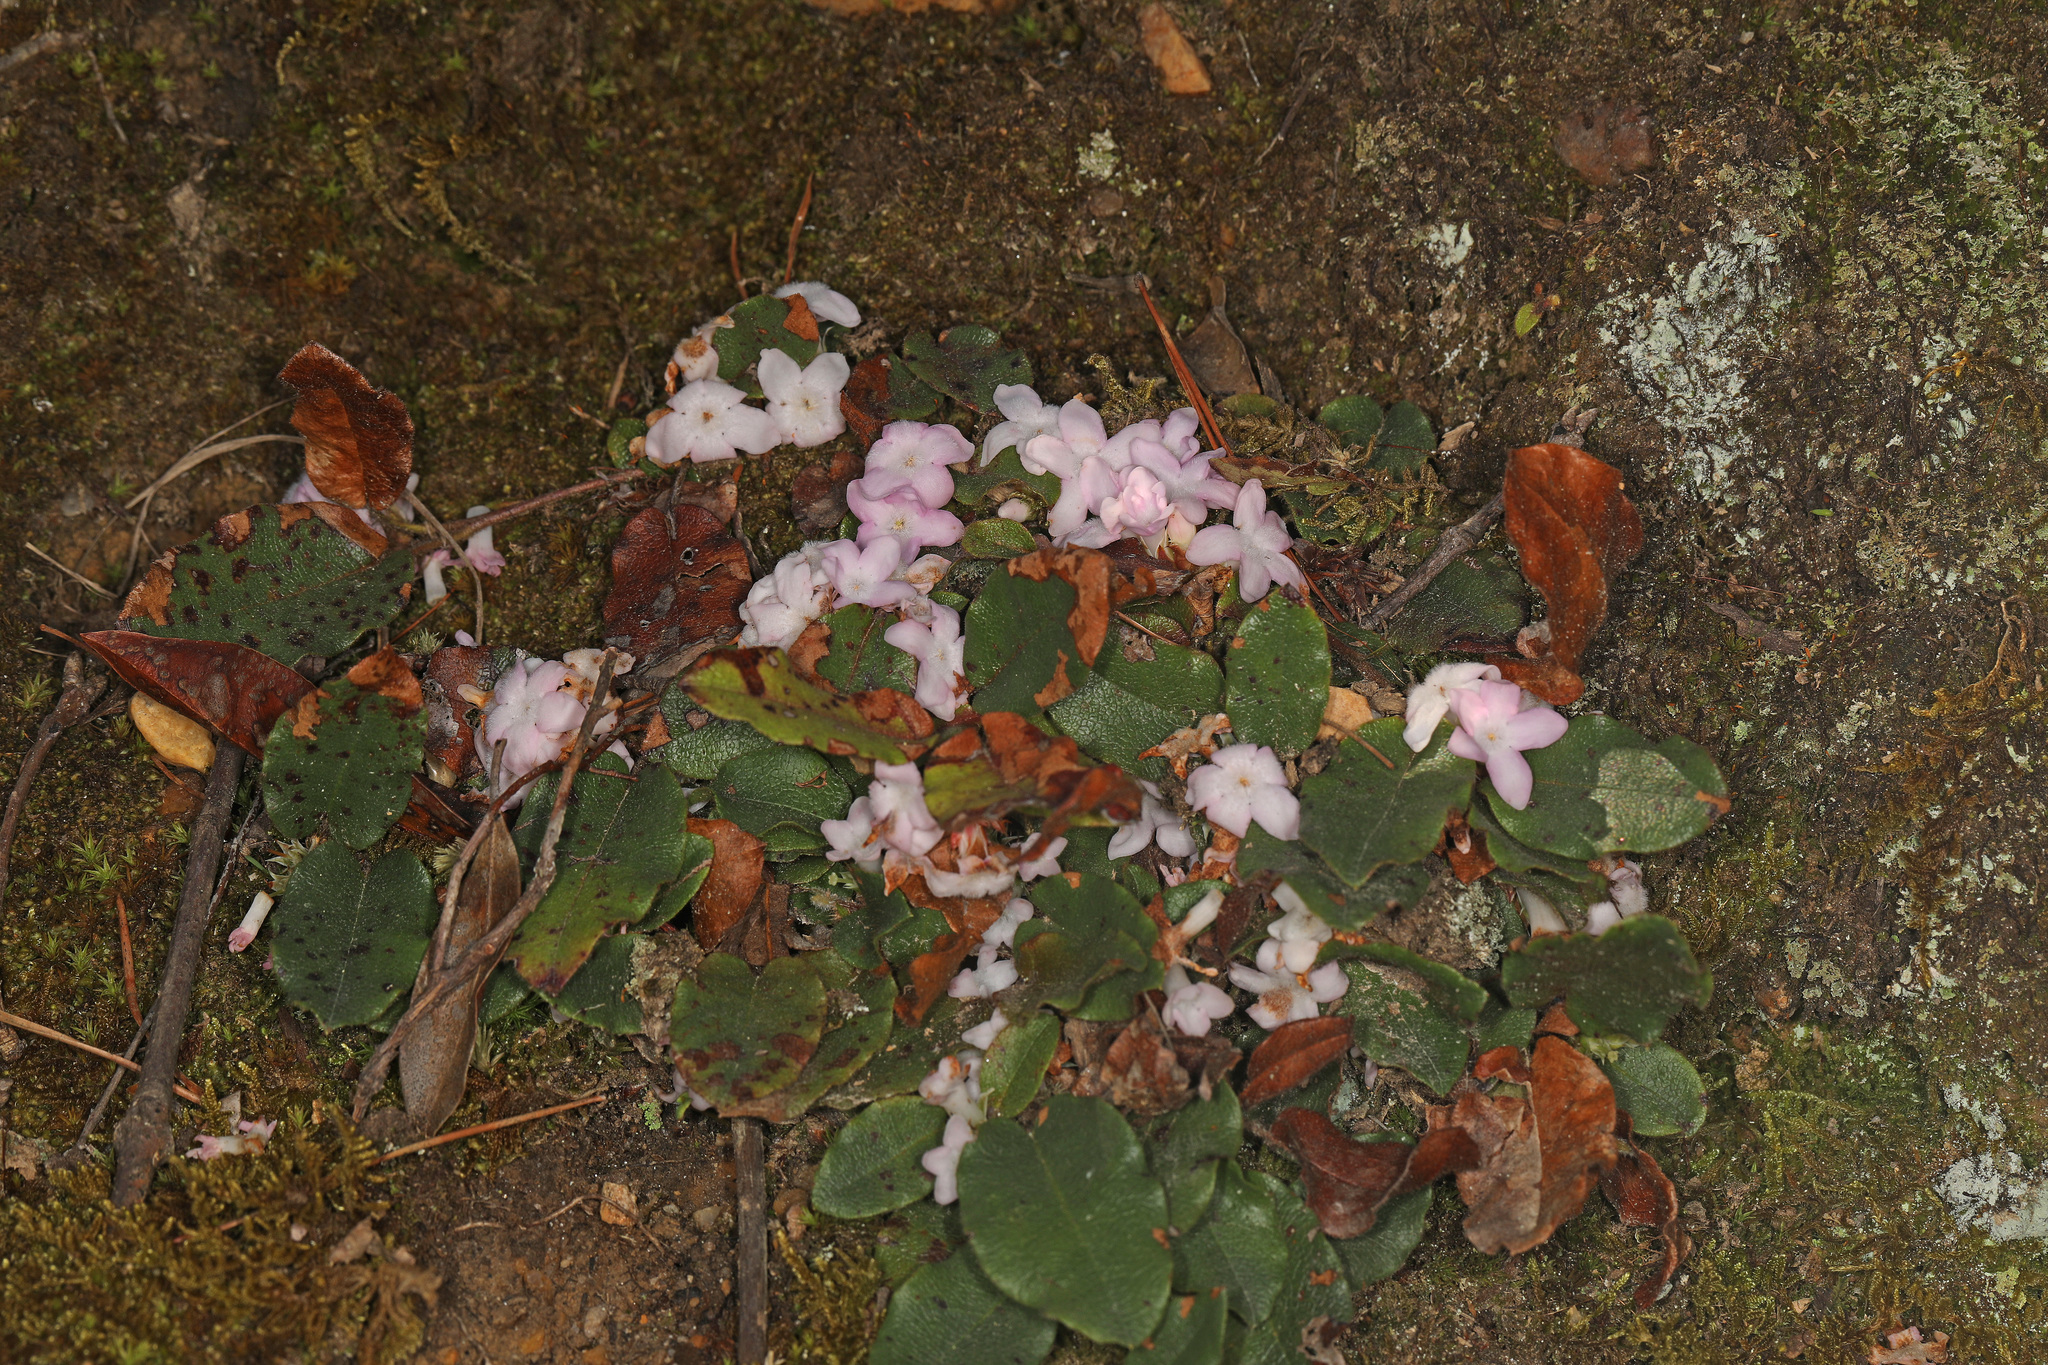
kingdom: Plantae
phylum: Tracheophyta
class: Magnoliopsida
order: Ericales
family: Ericaceae
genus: Epigaea
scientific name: Epigaea repens
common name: Gravelroot
